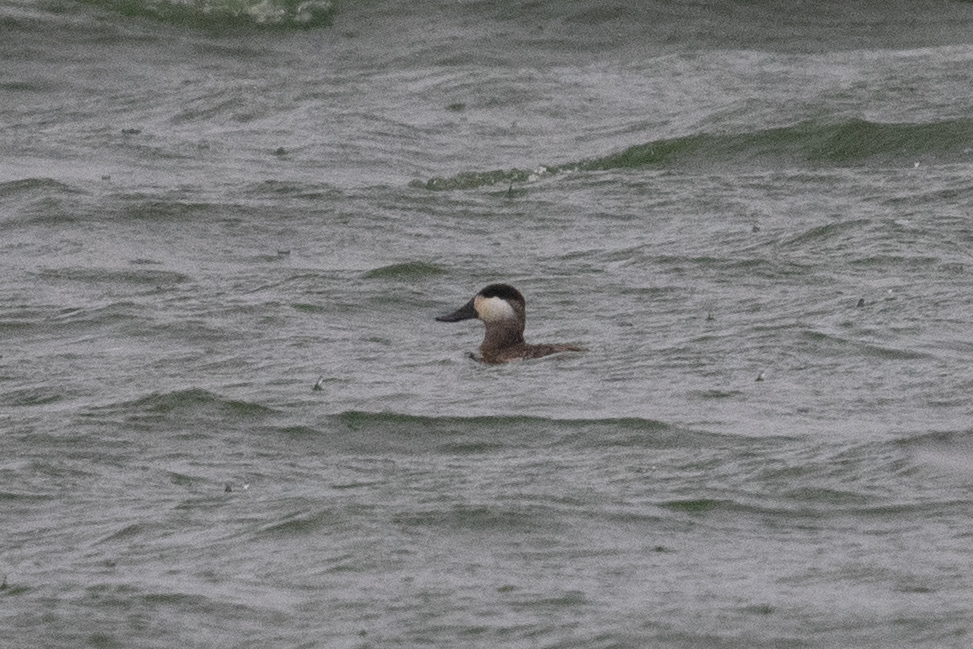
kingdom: Animalia
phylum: Chordata
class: Aves
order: Anseriformes
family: Anatidae
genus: Oxyura
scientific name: Oxyura jamaicensis
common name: Ruddy duck
